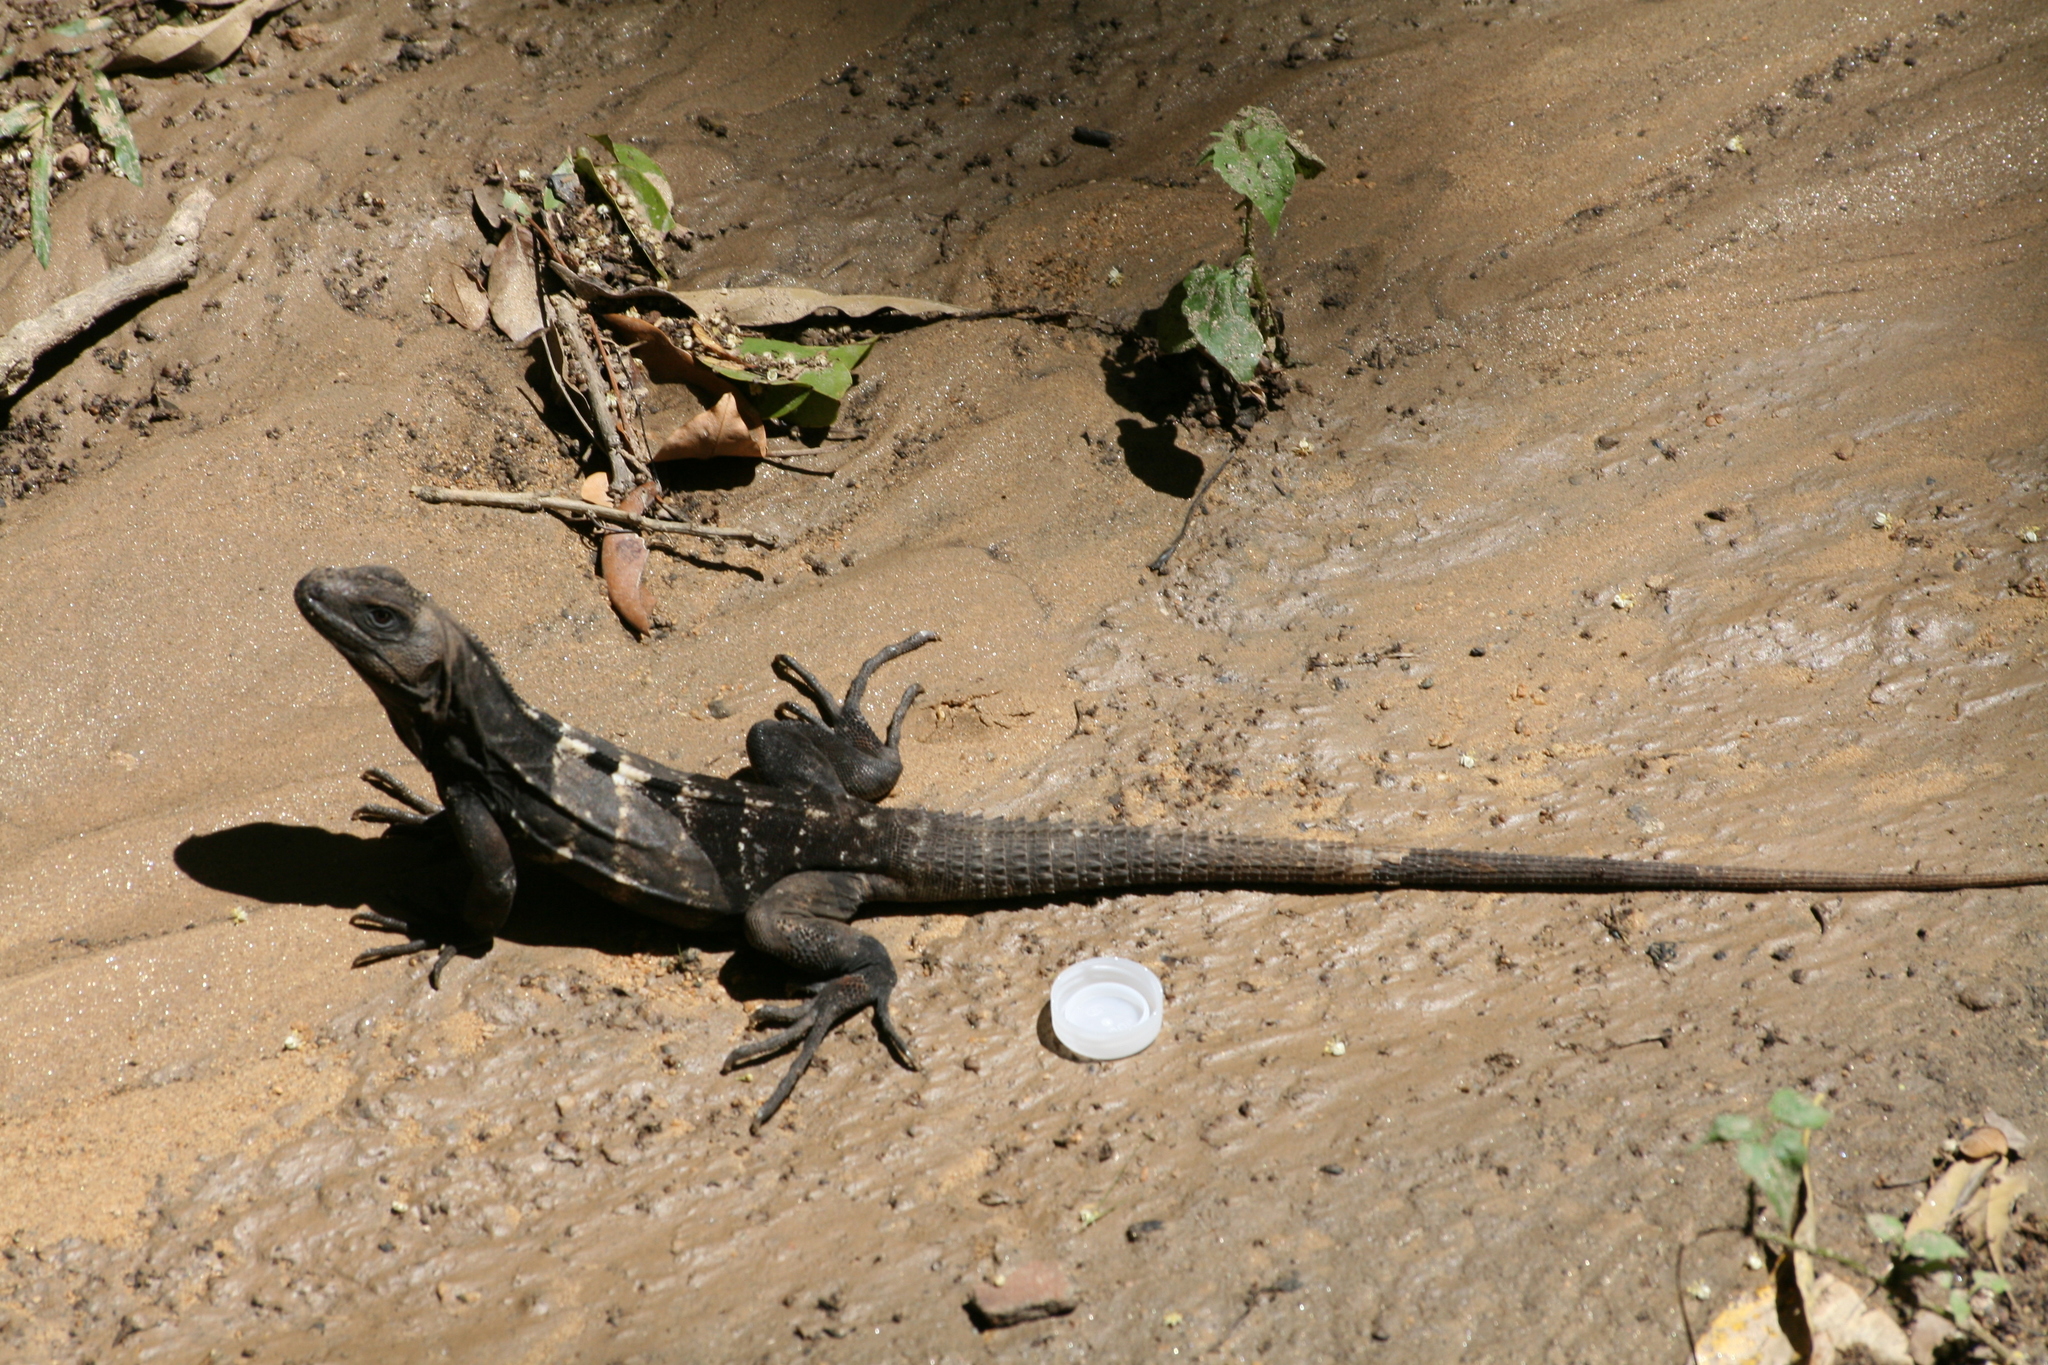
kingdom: Animalia
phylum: Chordata
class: Squamata
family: Iguanidae
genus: Ctenosaura
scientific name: Ctenosaura oedirhina
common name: Roatan spiny-tailed iguana
